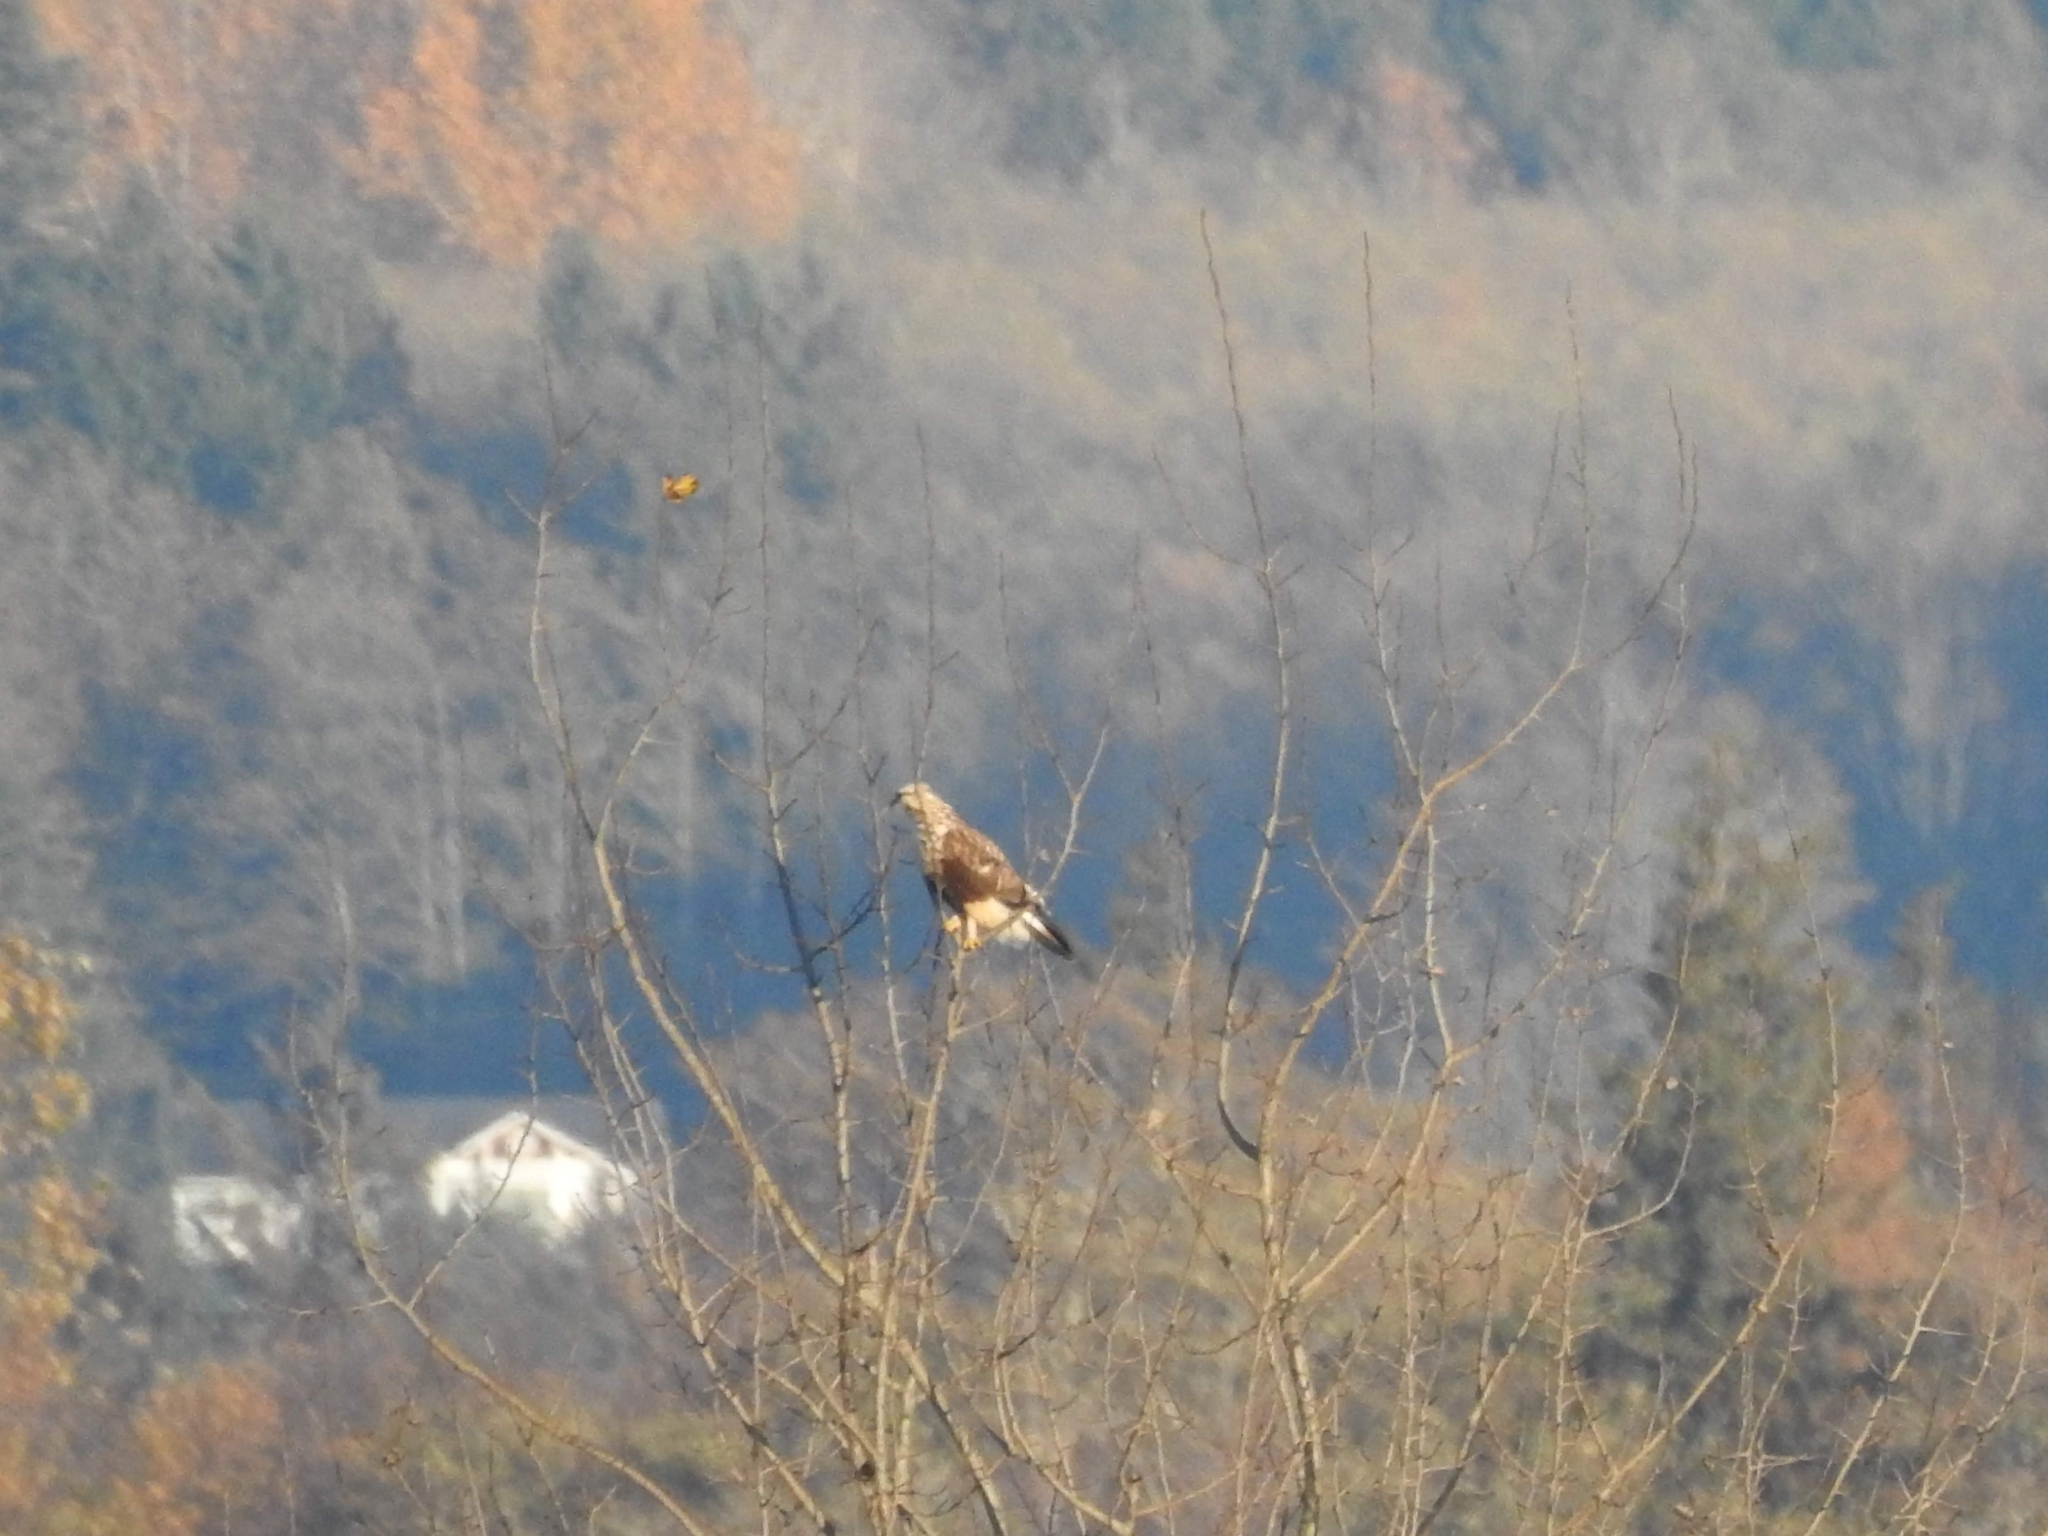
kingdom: Animalia
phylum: Chordata
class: Aves
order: Accipitriformes
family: Accipitridae
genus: Buteo
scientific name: Buteo lagopus
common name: Rough-legged buzzard
